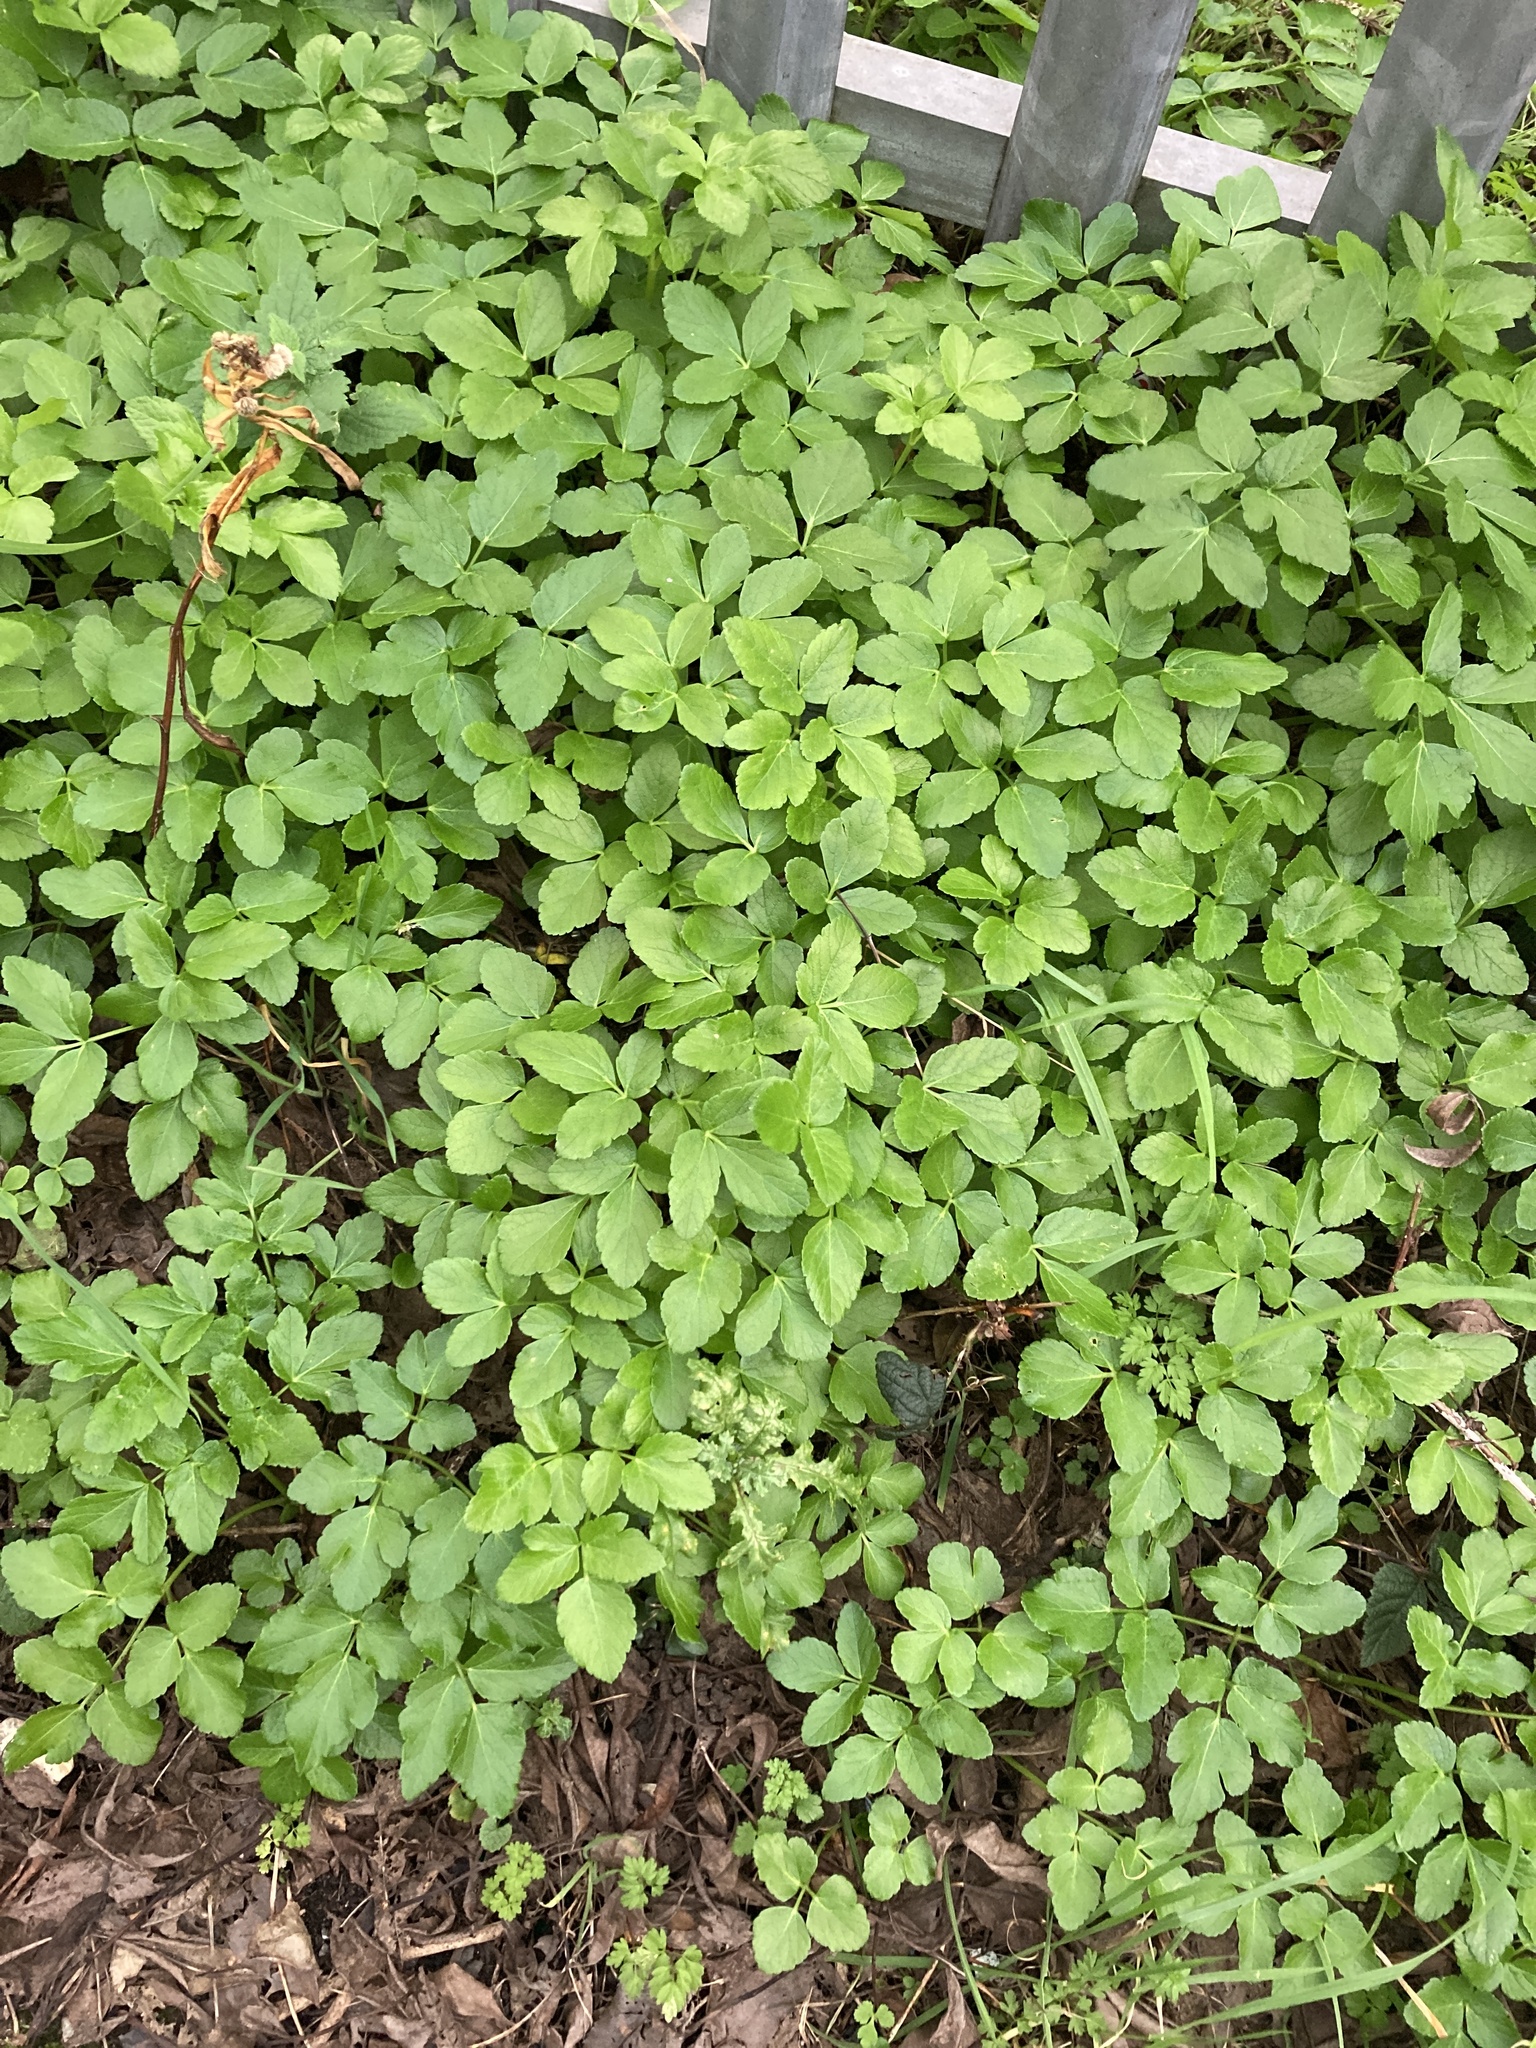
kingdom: Plantae
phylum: Tracheophyta
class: Magnoliopsida
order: Apiales
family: Apiaceae
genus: Smyrnium
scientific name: Smyrnium olusatrum
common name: Alexanders
